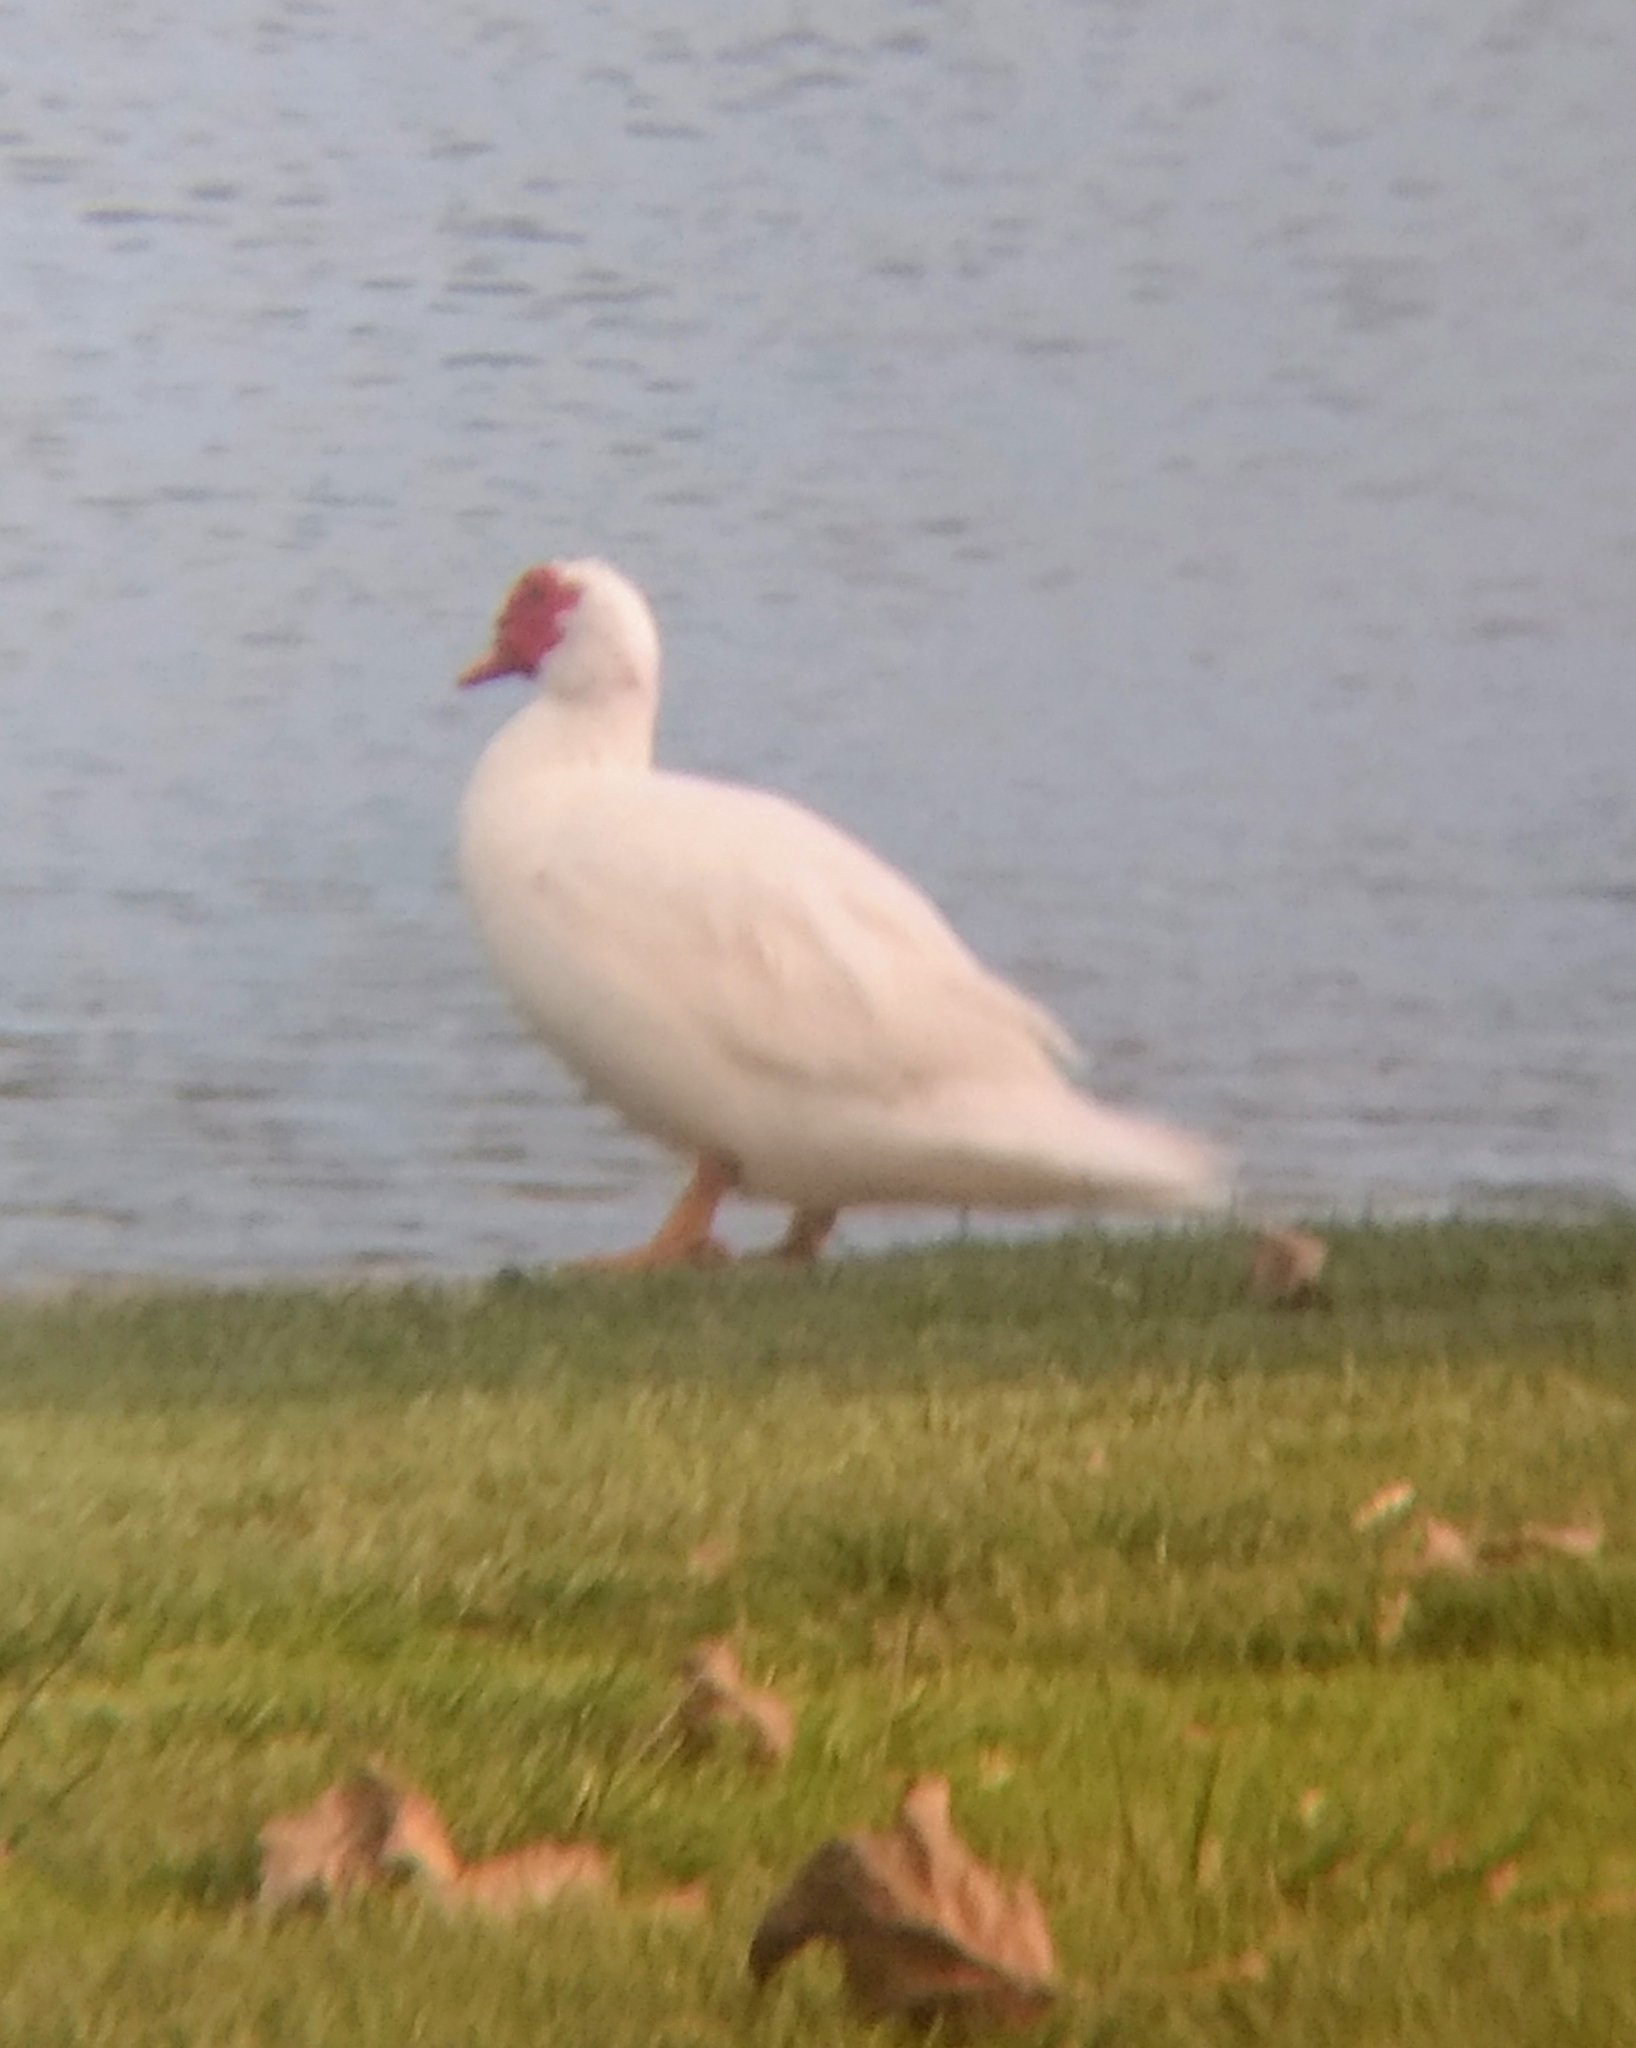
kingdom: Animalia
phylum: Chordata
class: Aves
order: Anseriformes
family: Anatidae
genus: Cairina
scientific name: Cairina moschata
